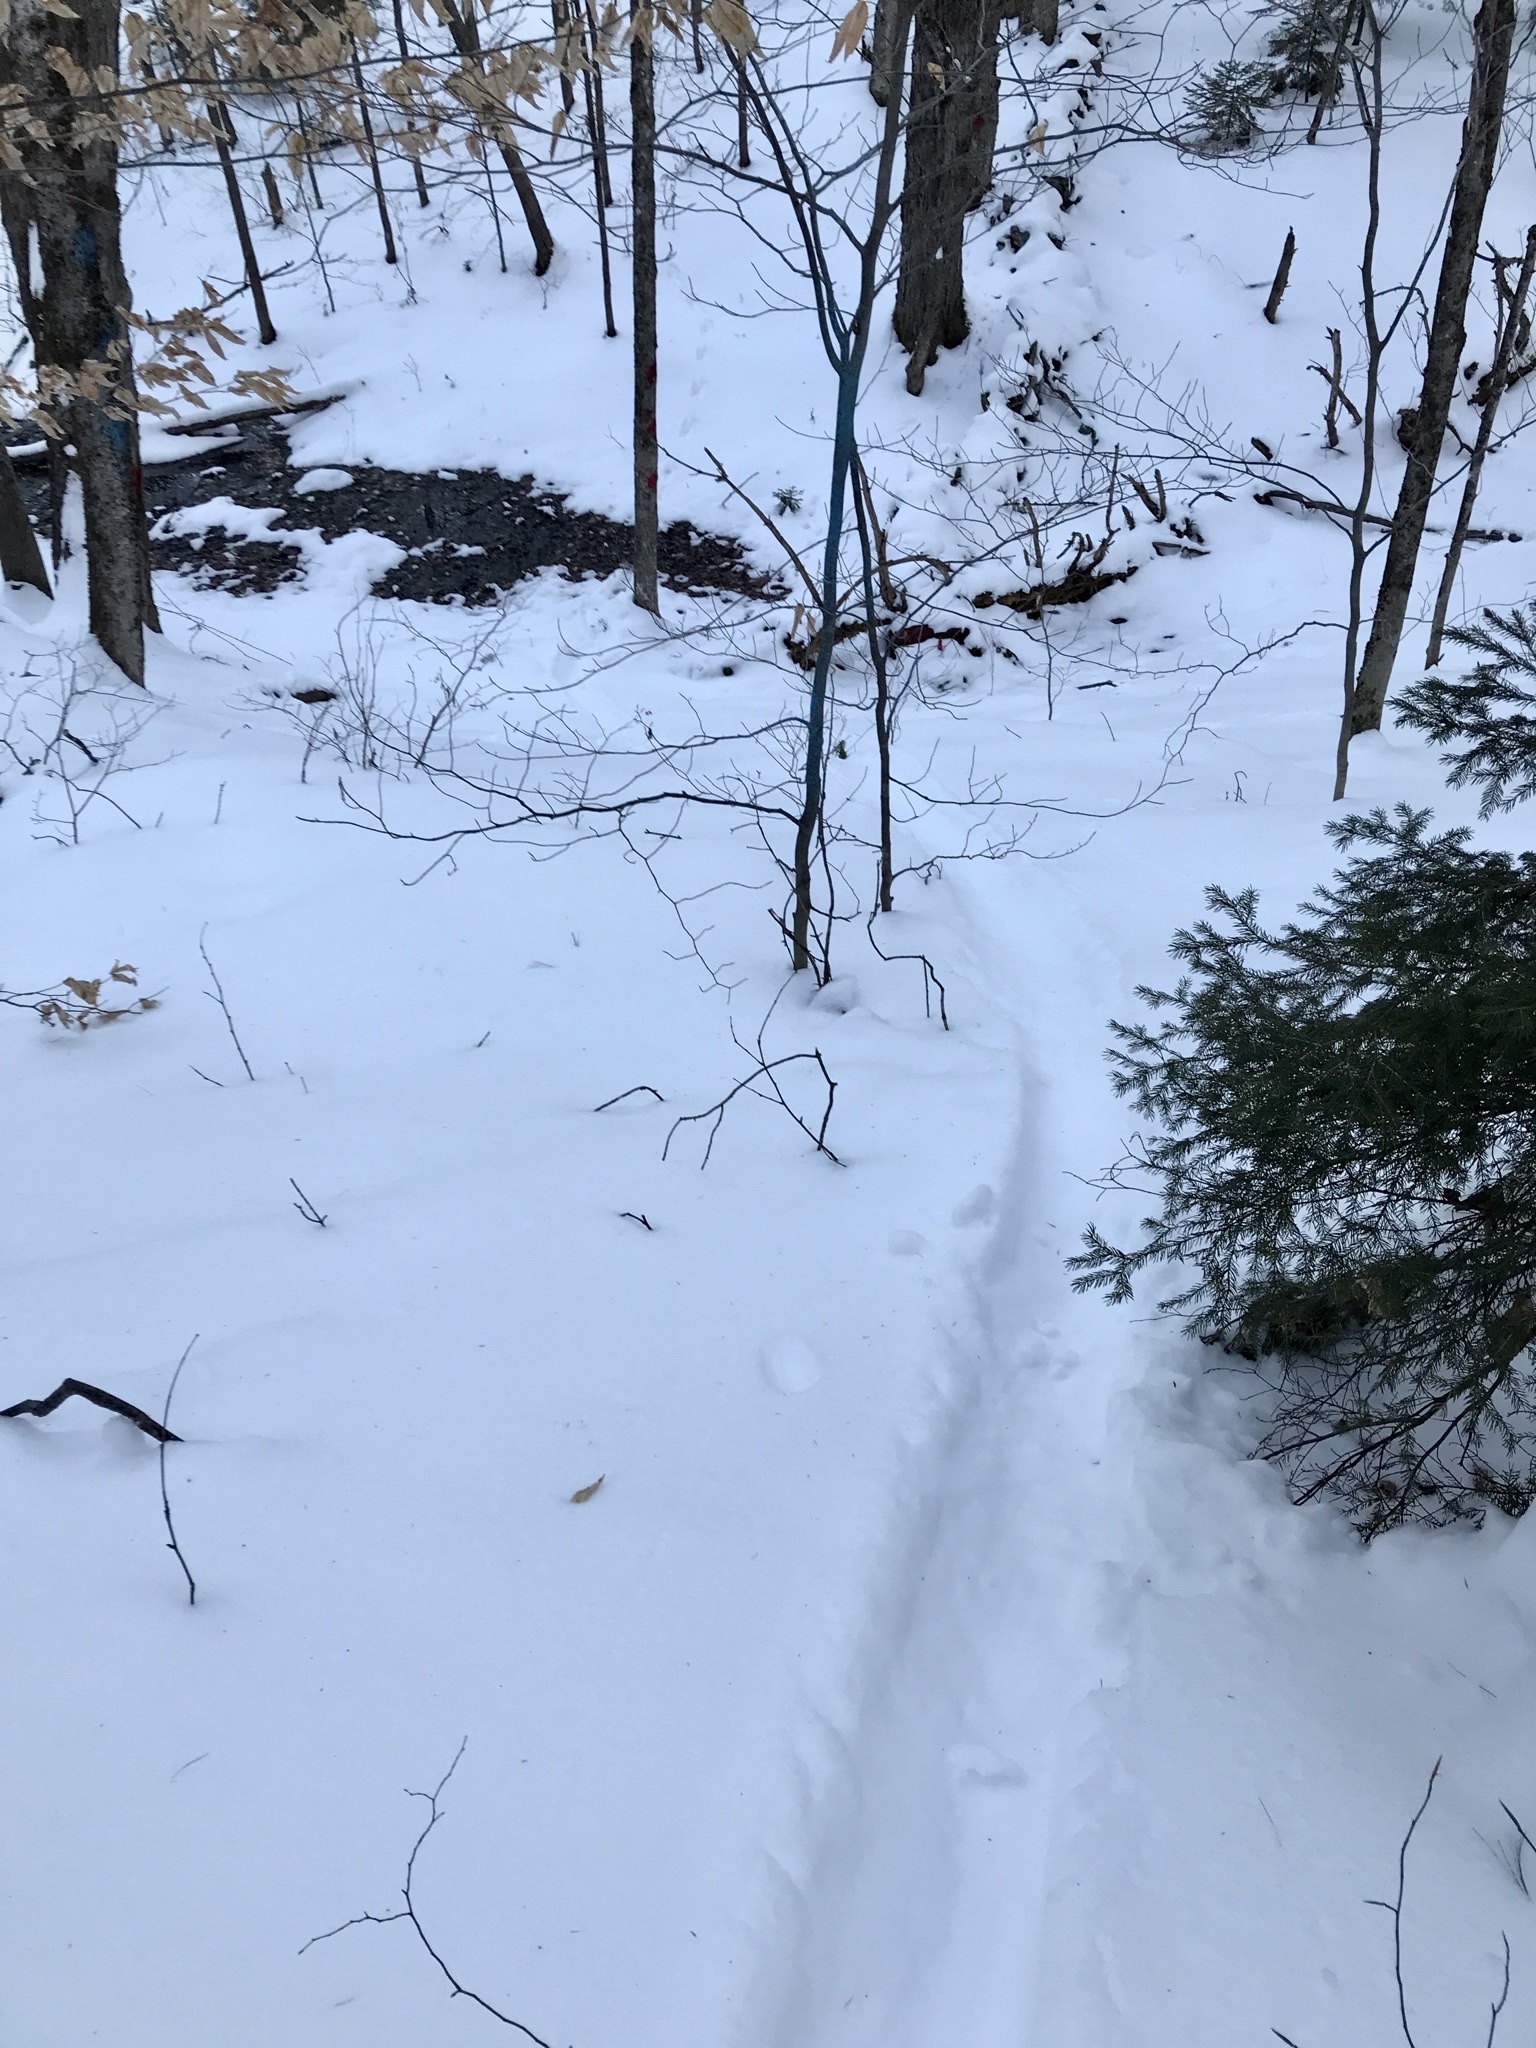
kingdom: Animalia
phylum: Chordata
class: Mammalia
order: Carnivora
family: Mustelidae
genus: Lontra
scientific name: Lontra canadensis
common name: North american river otter
